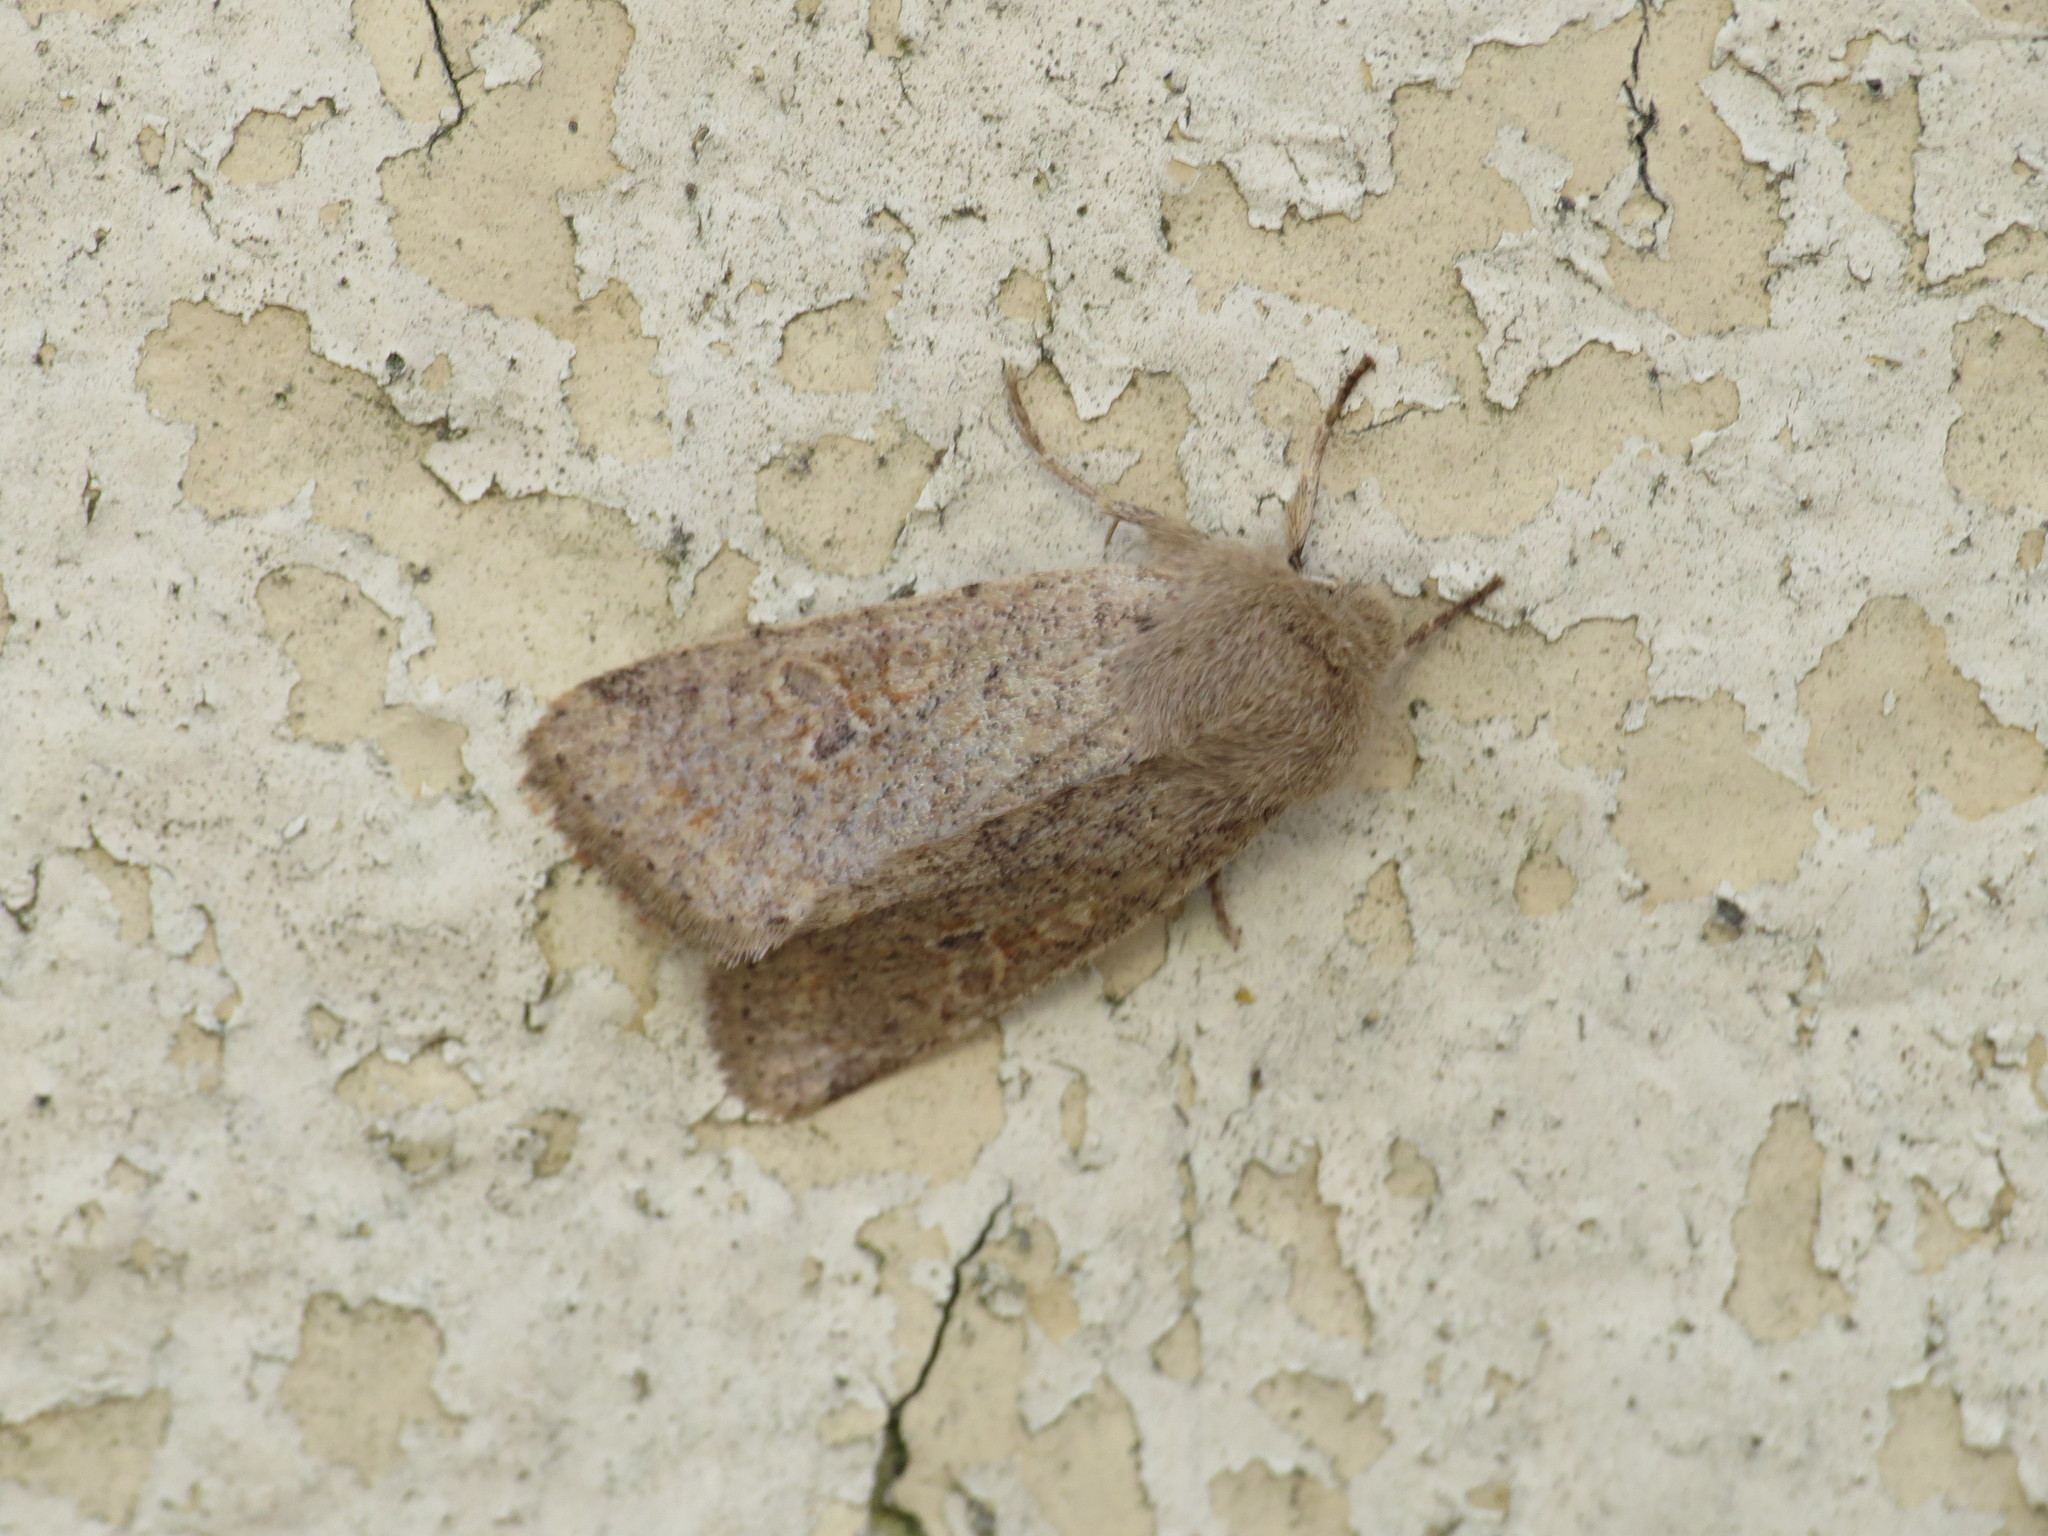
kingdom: Animalia
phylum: Arthropoda
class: Insecta
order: Lepidoptera
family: Noctuidae
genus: Orthosia
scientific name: Orthosia cruda
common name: Small quaker
